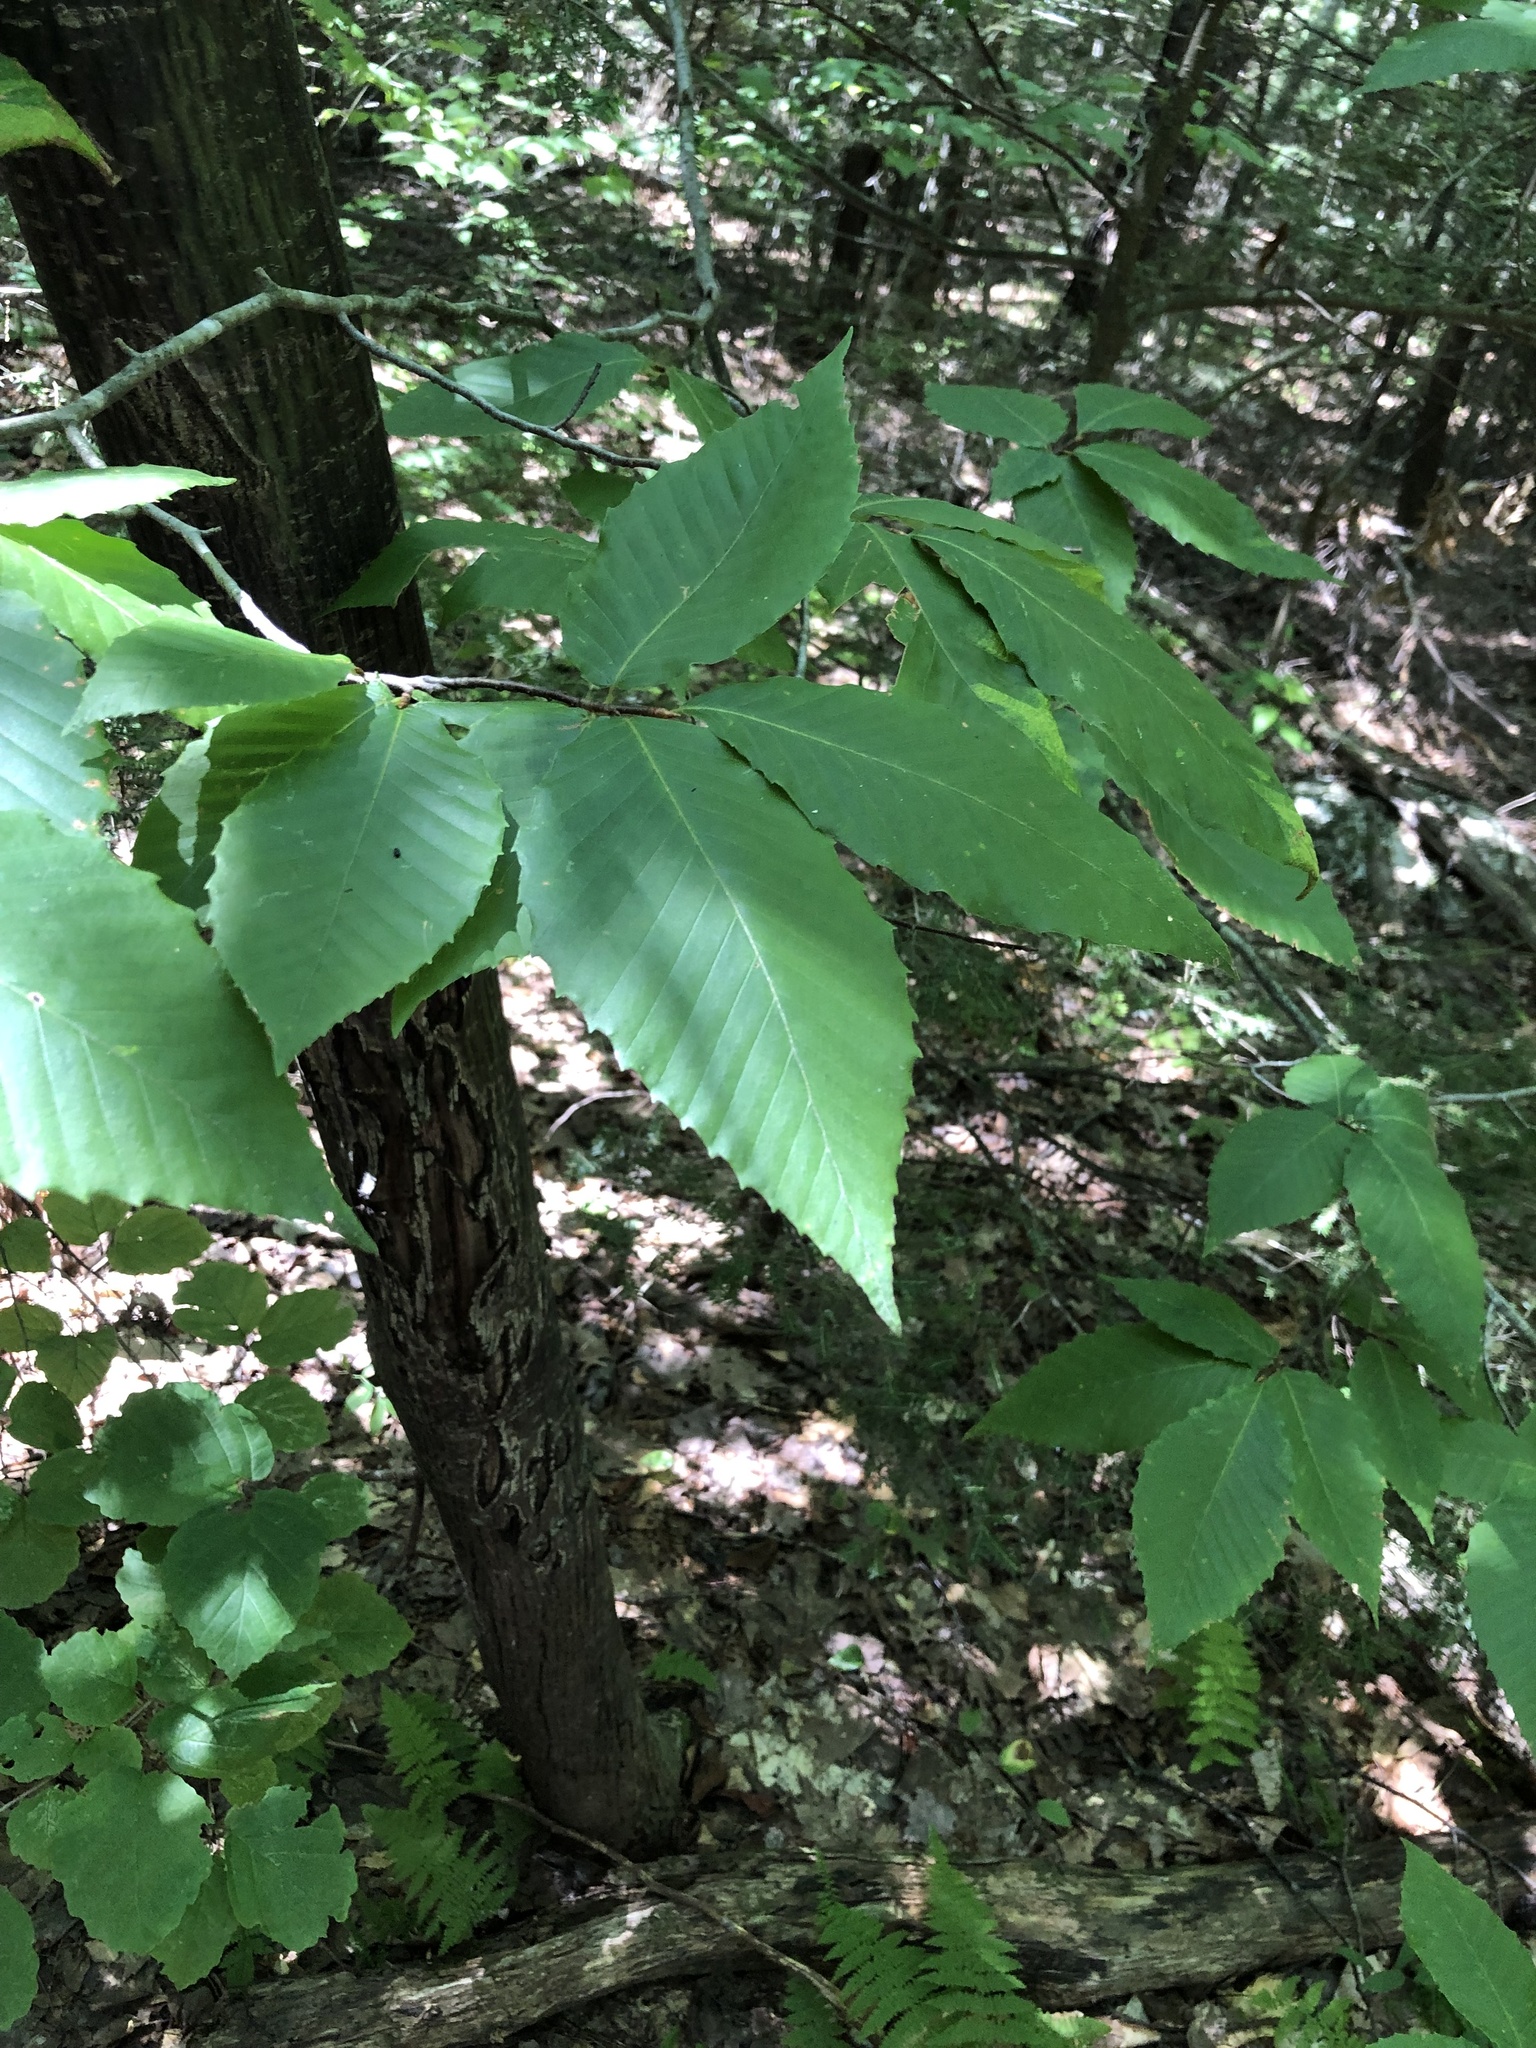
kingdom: Plantae
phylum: Tracheophyta
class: Magnoliopsida
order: Fagales
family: Fagaceae
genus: Fagus
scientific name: Fagus grandifolia
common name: American beech
